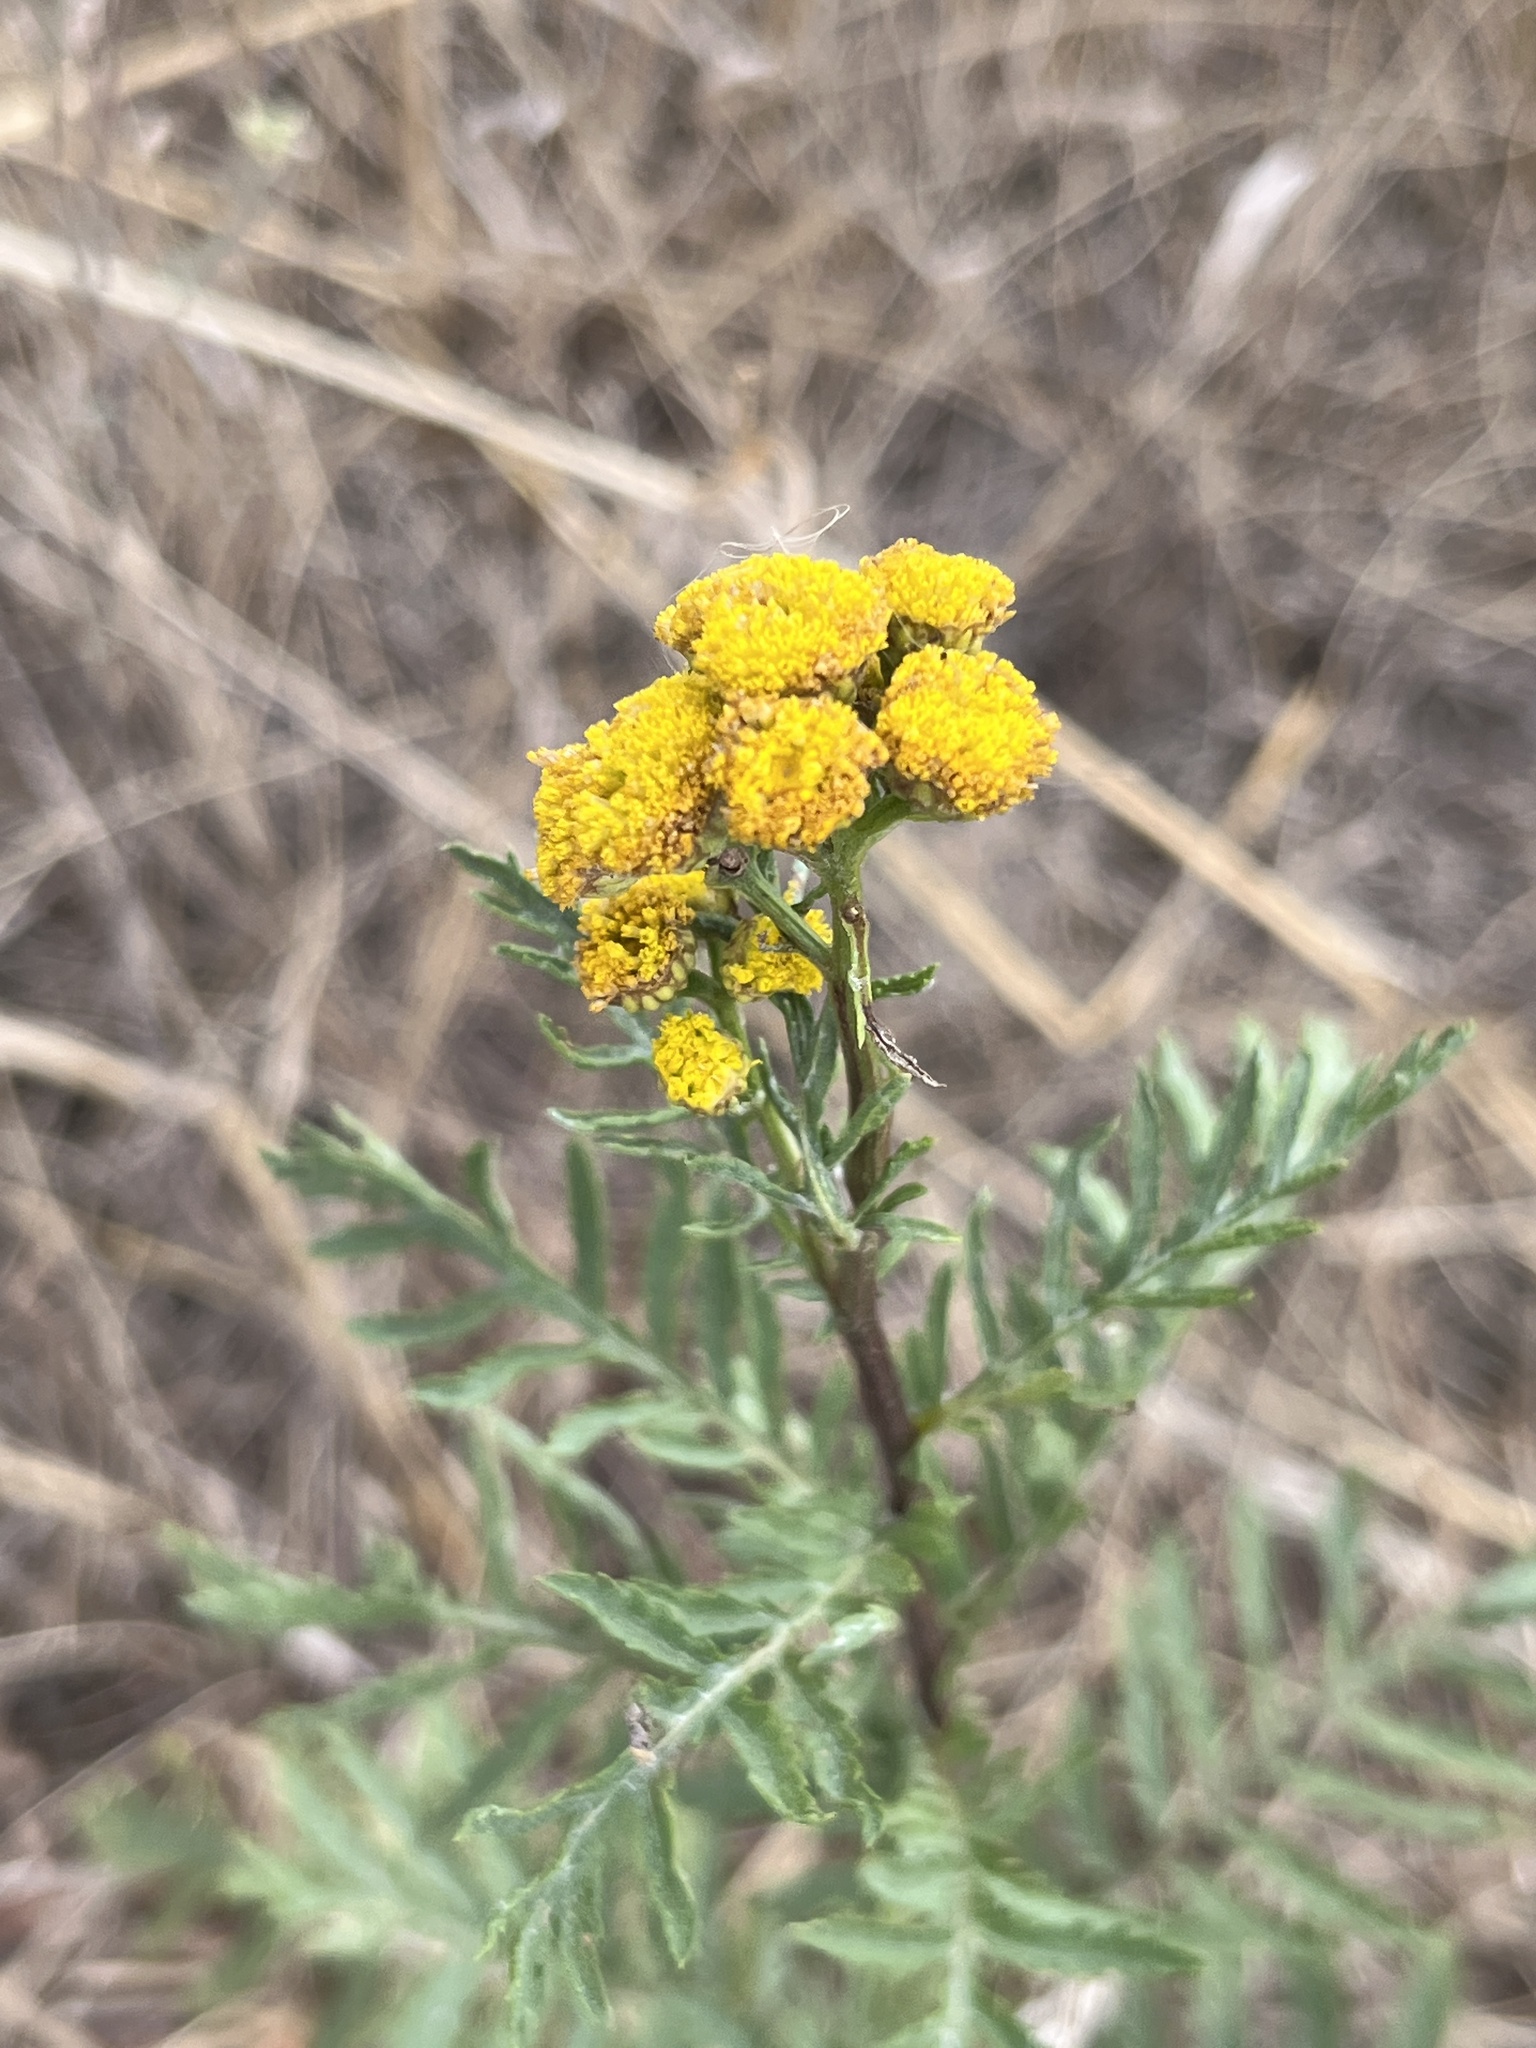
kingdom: Plantae
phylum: Tracheophyta
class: Magnoliopsida
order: Asterales
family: Asteraceae
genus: Tanacetum
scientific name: Tanacetum vulgare
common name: Common tansy
